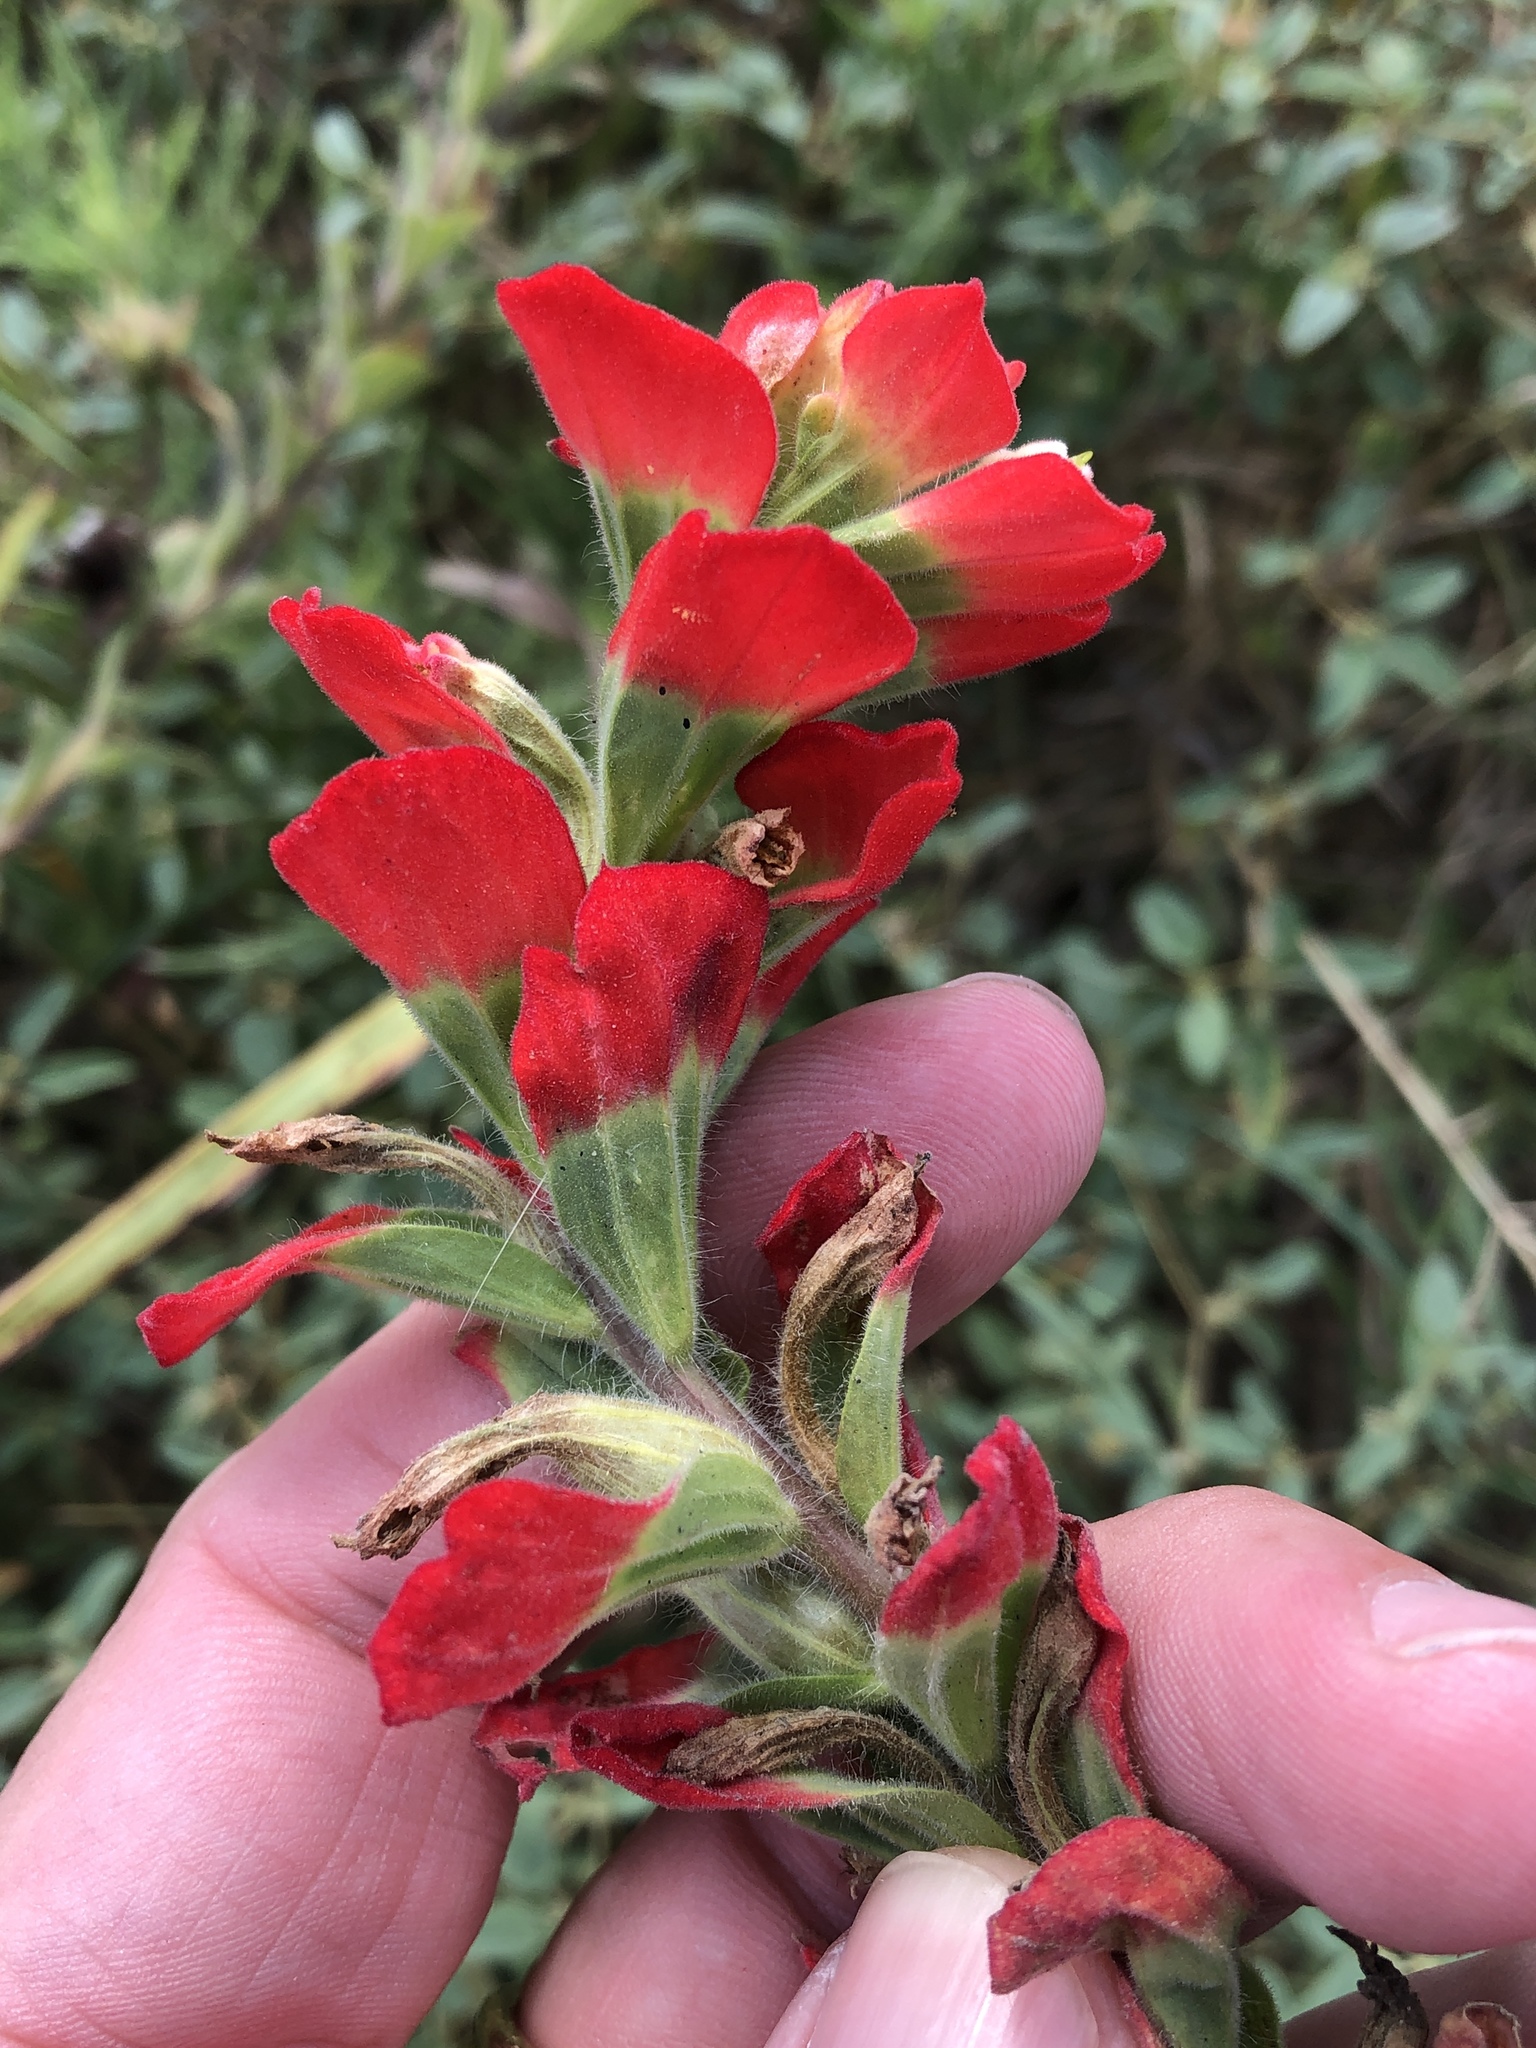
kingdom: Plantae
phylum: Tracheophyta
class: Magnoliopsida
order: Lamiales
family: Orobanchaceae
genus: Castilleja
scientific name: Castilleja indivisa
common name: Texas paintbrush
